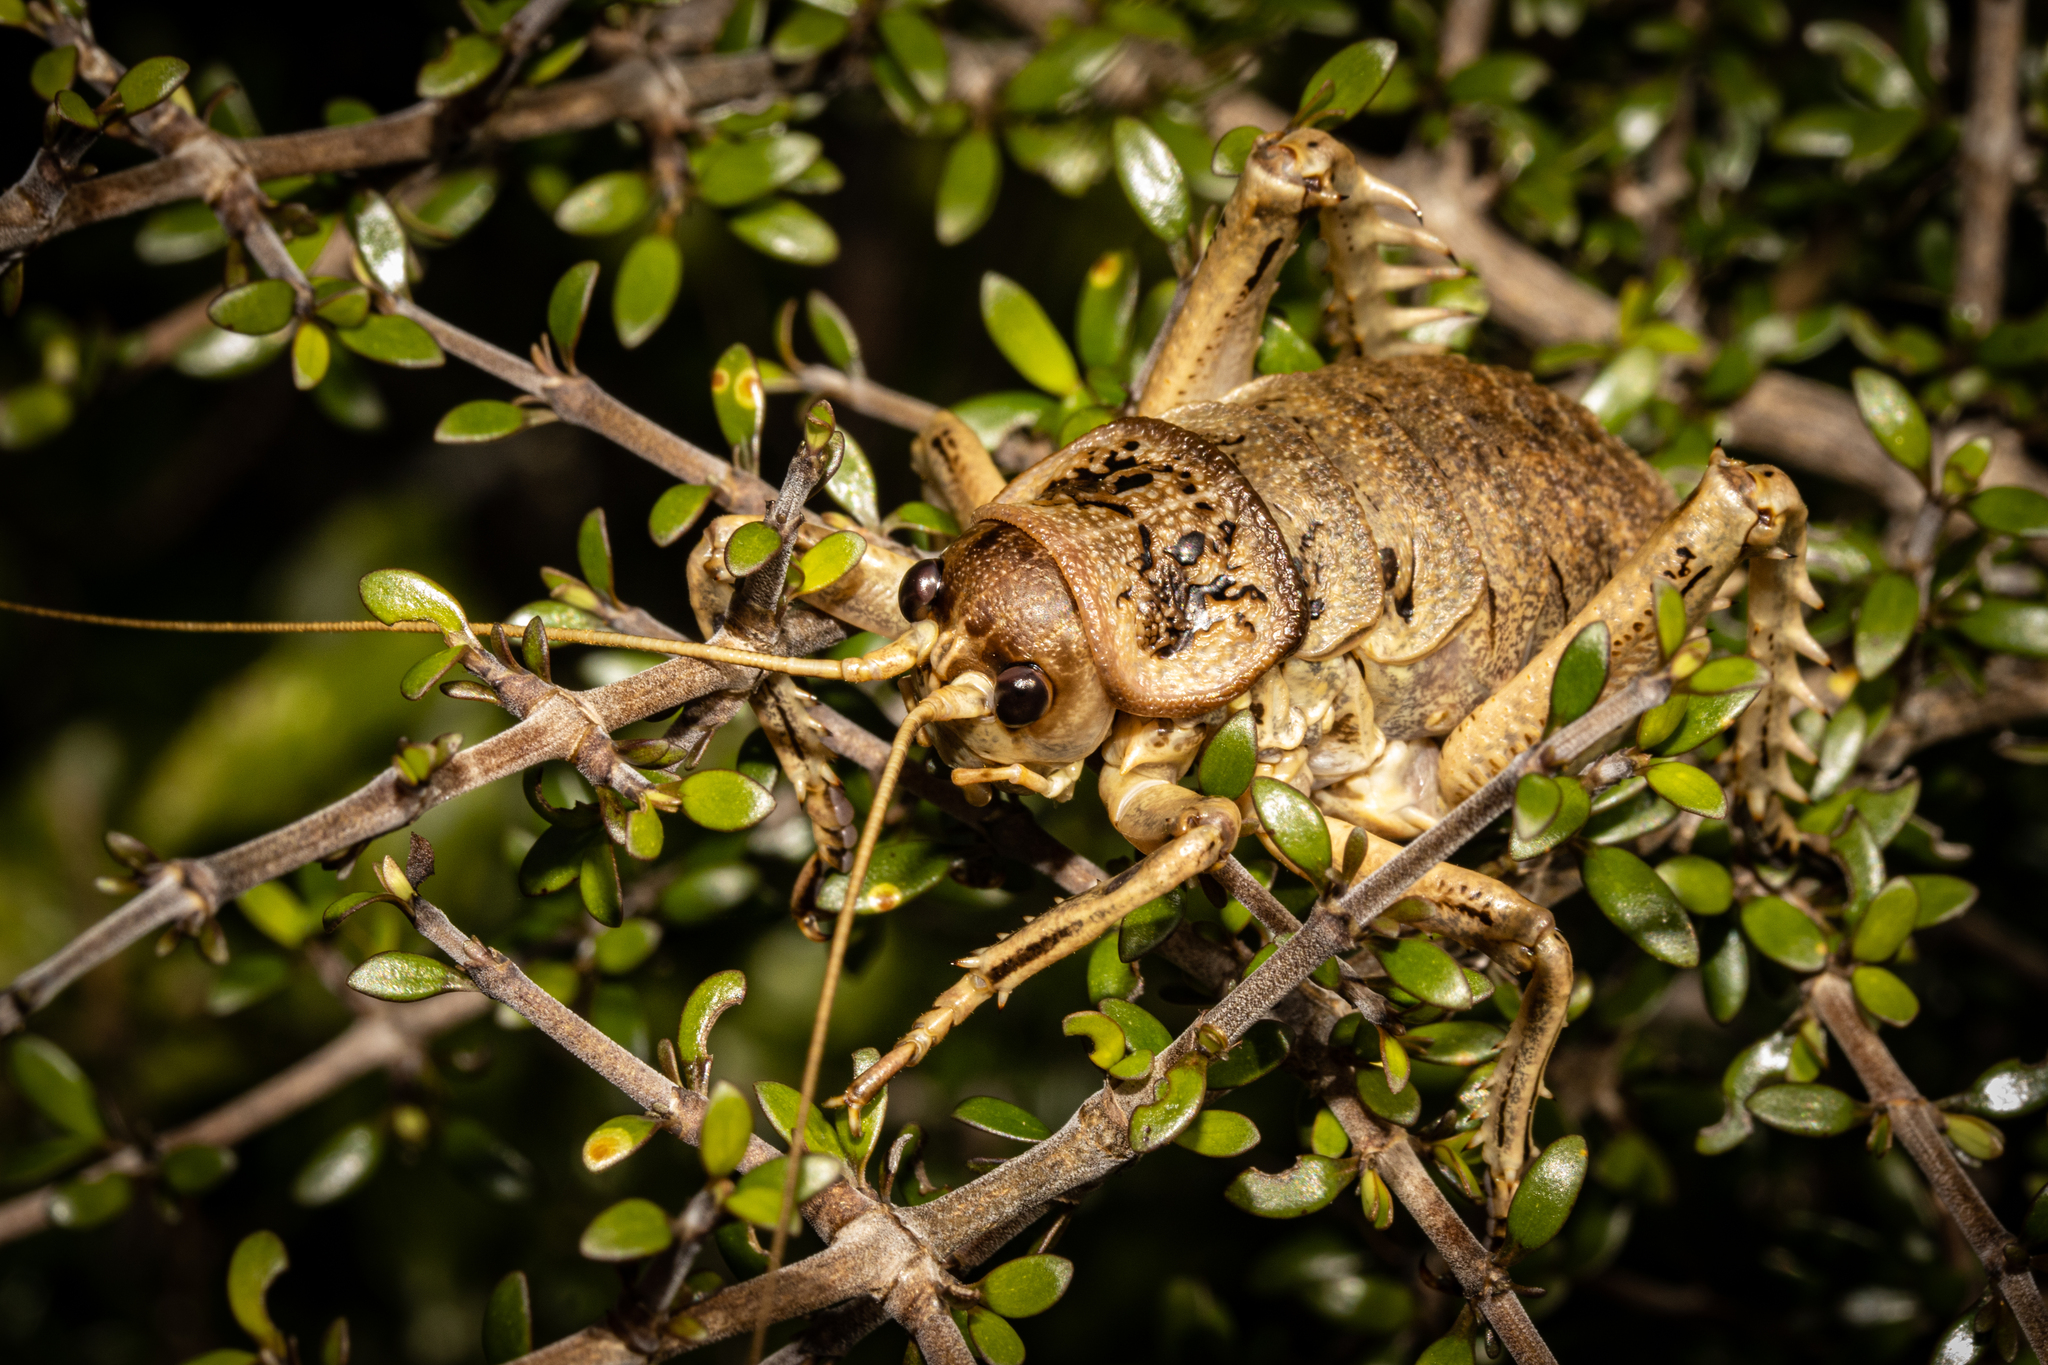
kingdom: Animalia
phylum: Arthropoda
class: Insecta
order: Orthoptera
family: Anostostomatidae
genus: Deinacrida
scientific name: Deinacrida rugosa
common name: Stephens island weta
